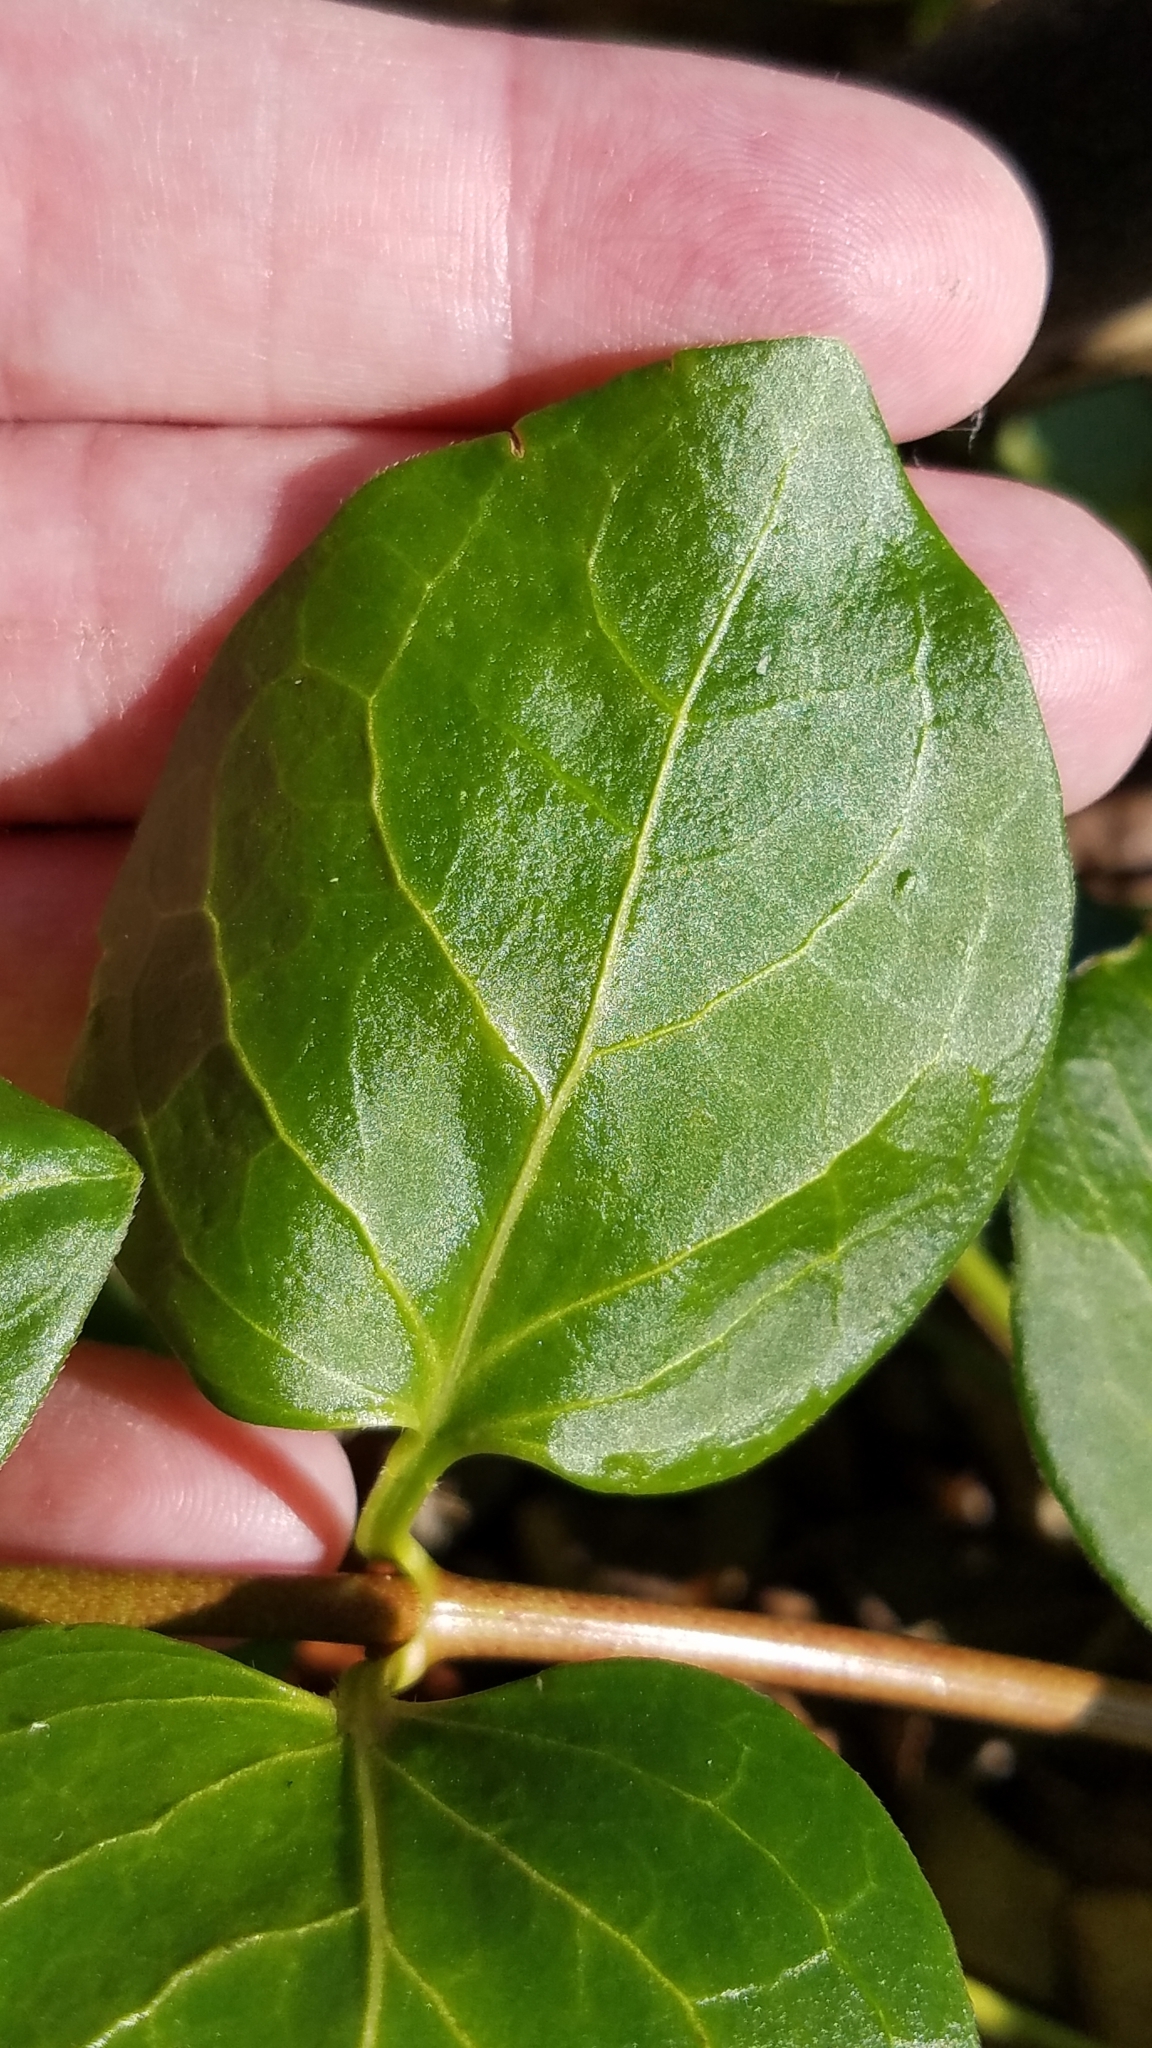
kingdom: Plantae
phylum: Tracheophyta
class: Magnoliopsida
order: Gentianales
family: Apocynaceae
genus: Vinca
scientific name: Vinca major
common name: Greater periwinkle
